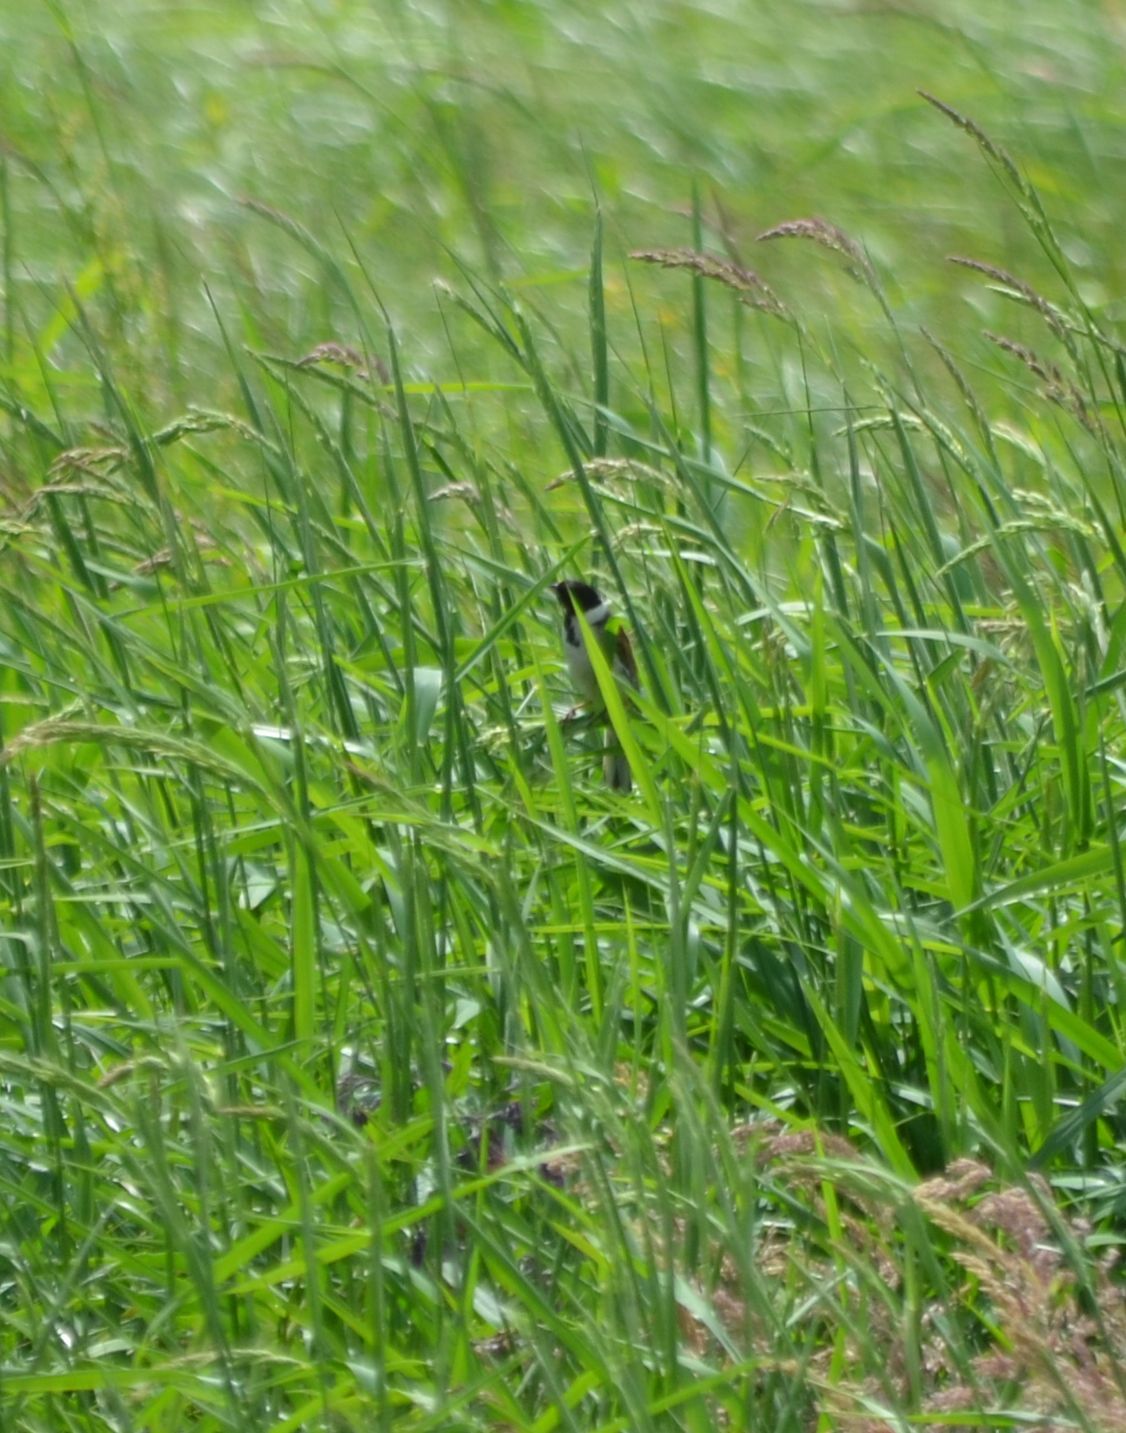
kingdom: Animalia
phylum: Chordata
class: Aves
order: Passeriformes
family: Emberizidae
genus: Emberiza
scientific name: Emberiza schoeniclus
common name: Reed bunting
